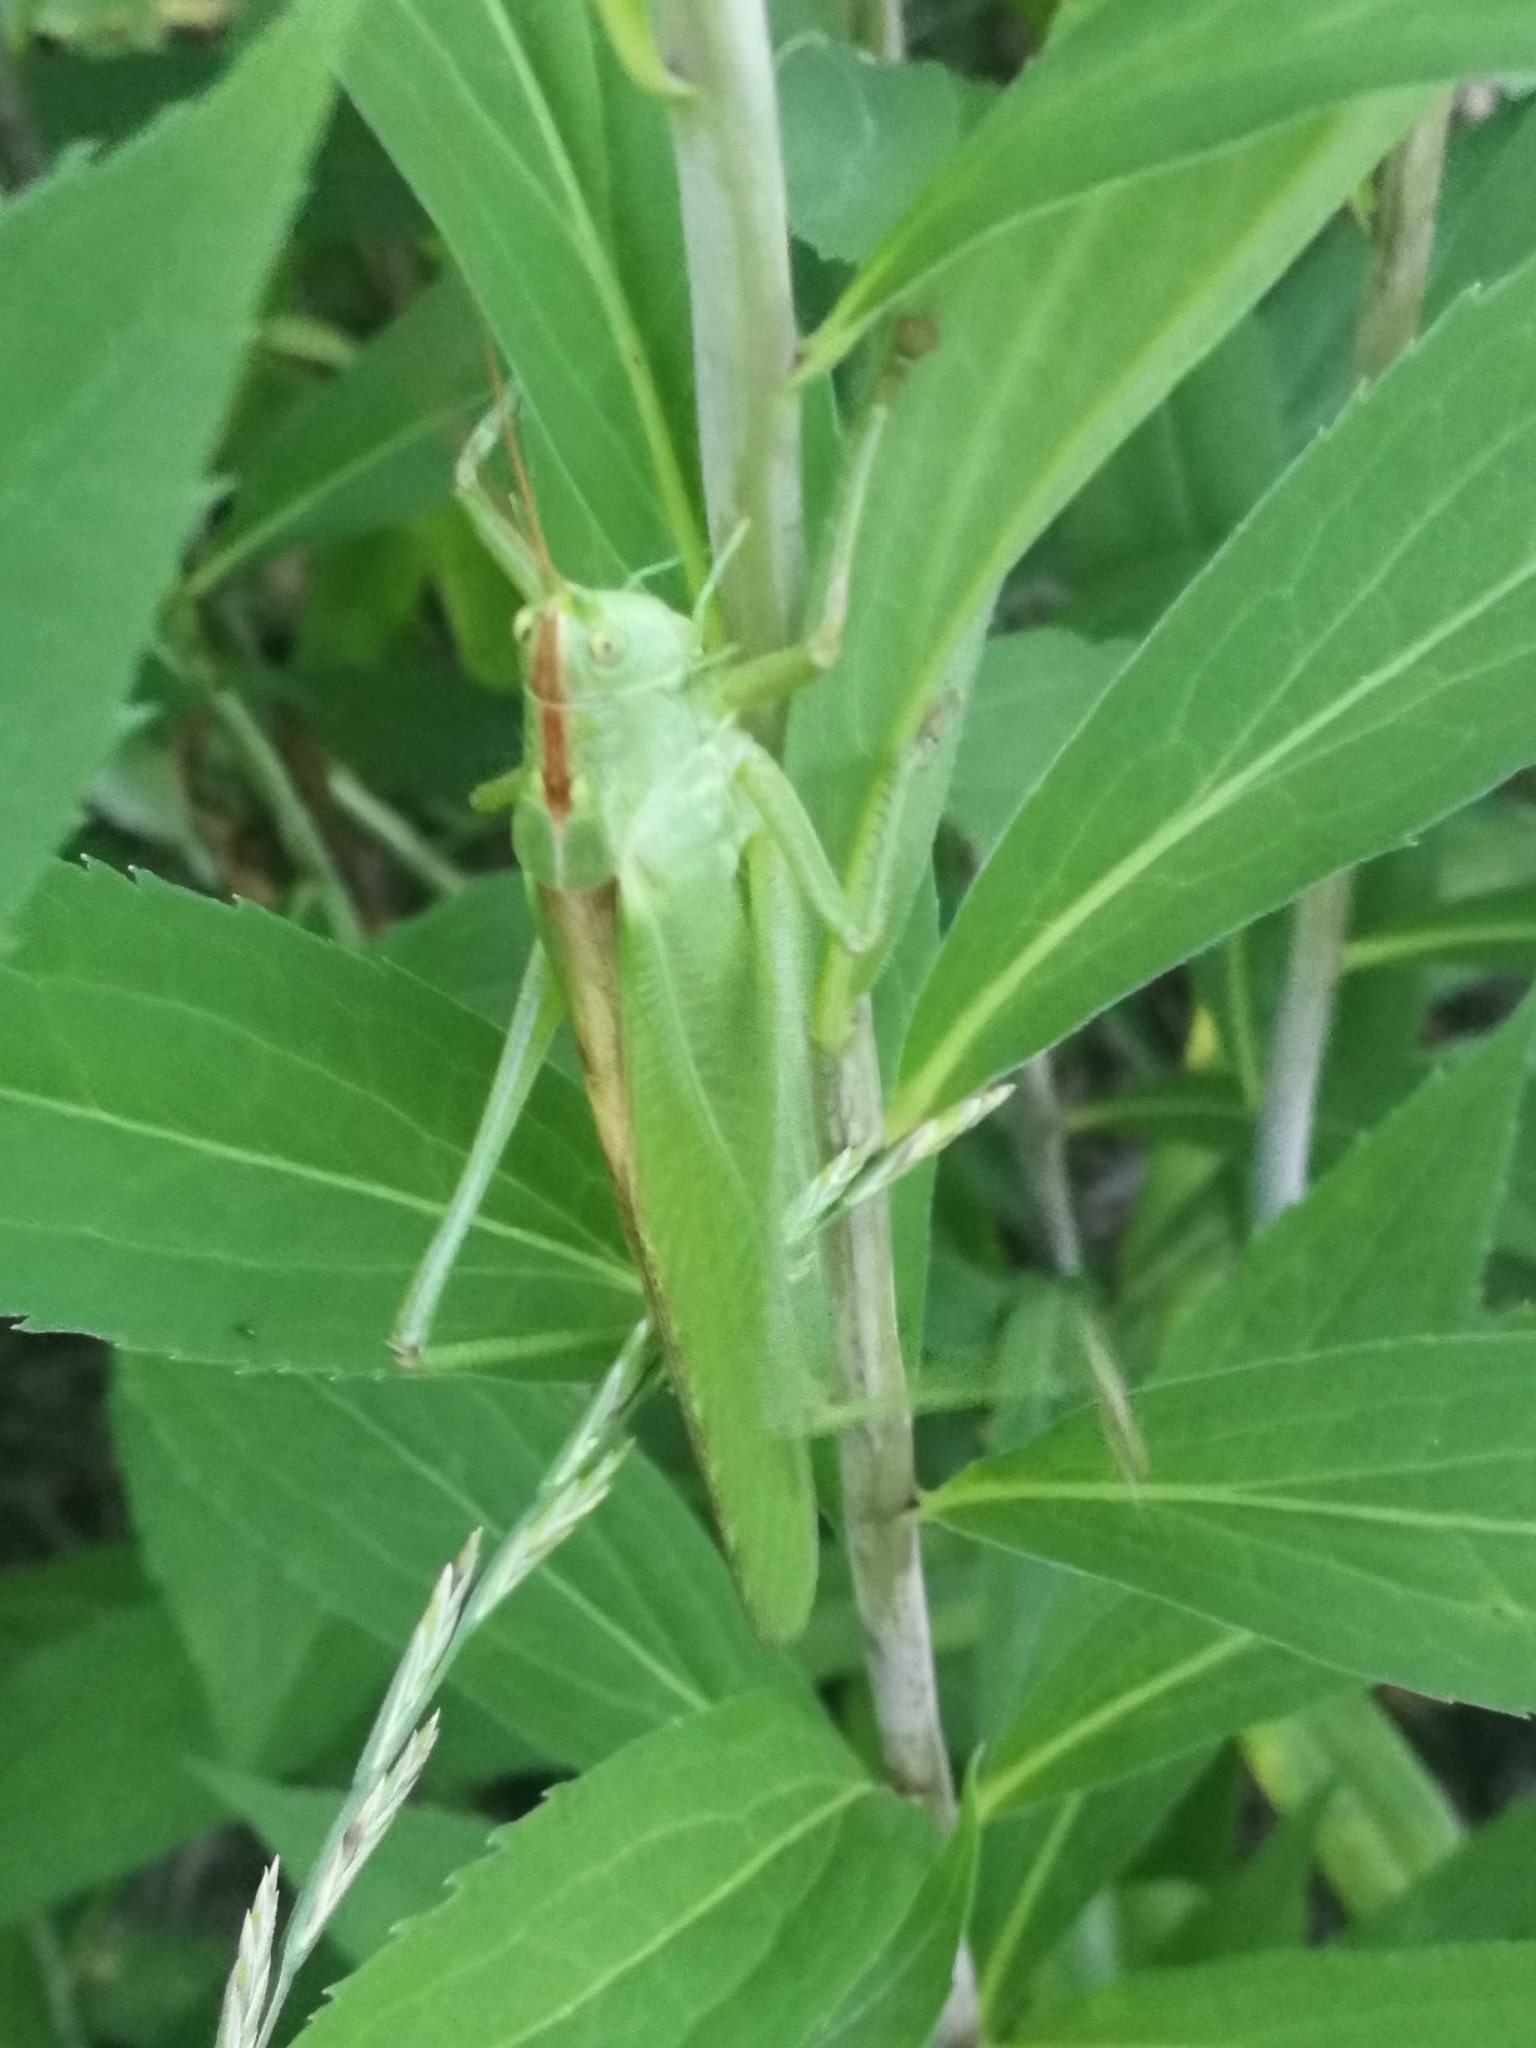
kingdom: Animalia
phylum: Arthropoda
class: Insecta
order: Orthoptera
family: Tettigoniidae
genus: Tettigonia
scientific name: Tettigonia viridissima
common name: Great green bush-cricket
